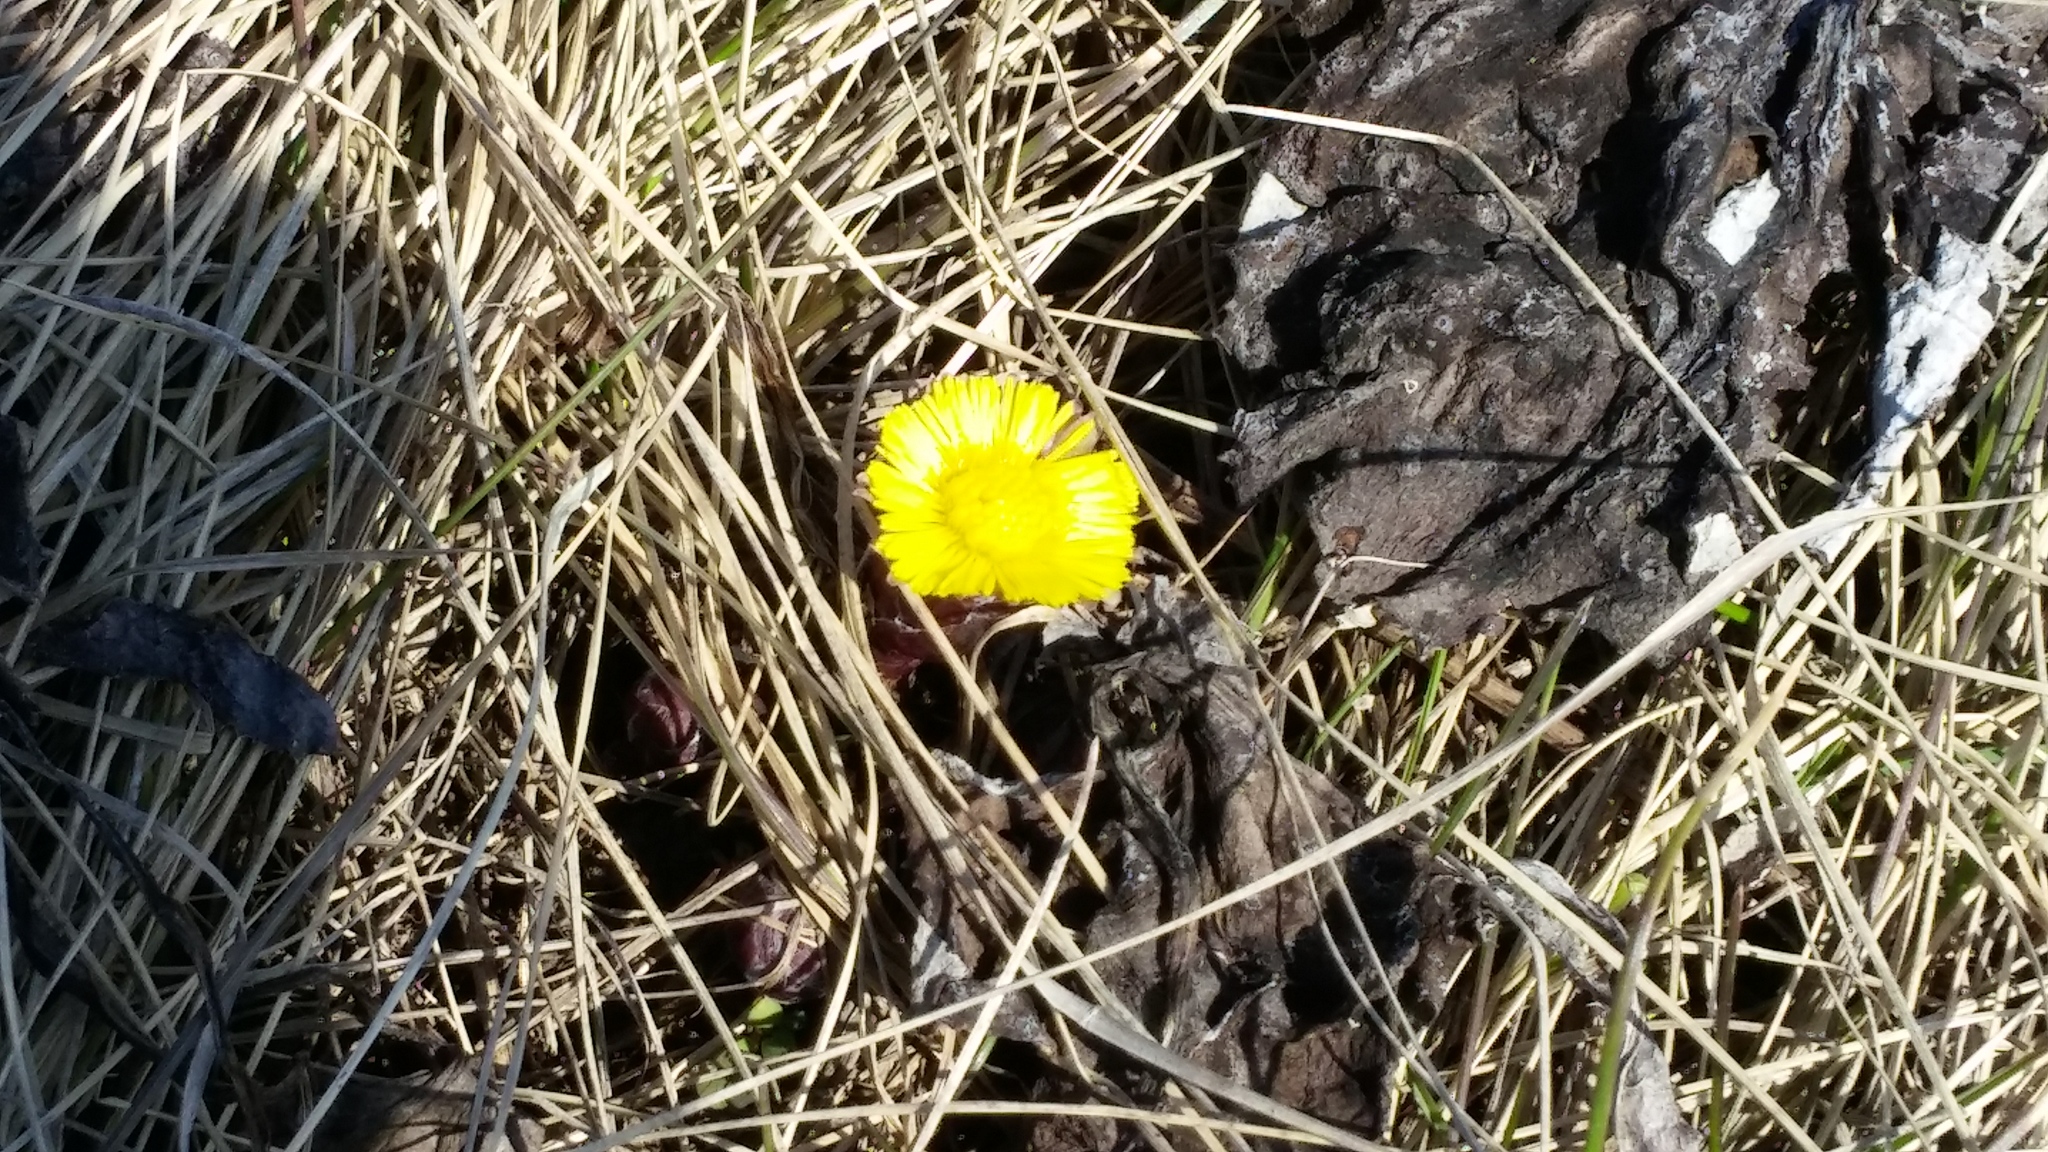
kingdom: Plantae
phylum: Tracheophyta
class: Magnoliopsida
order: Asterales
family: Asteraceae
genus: Tussilago
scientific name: Tussilago farfara
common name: Coltsfoot
